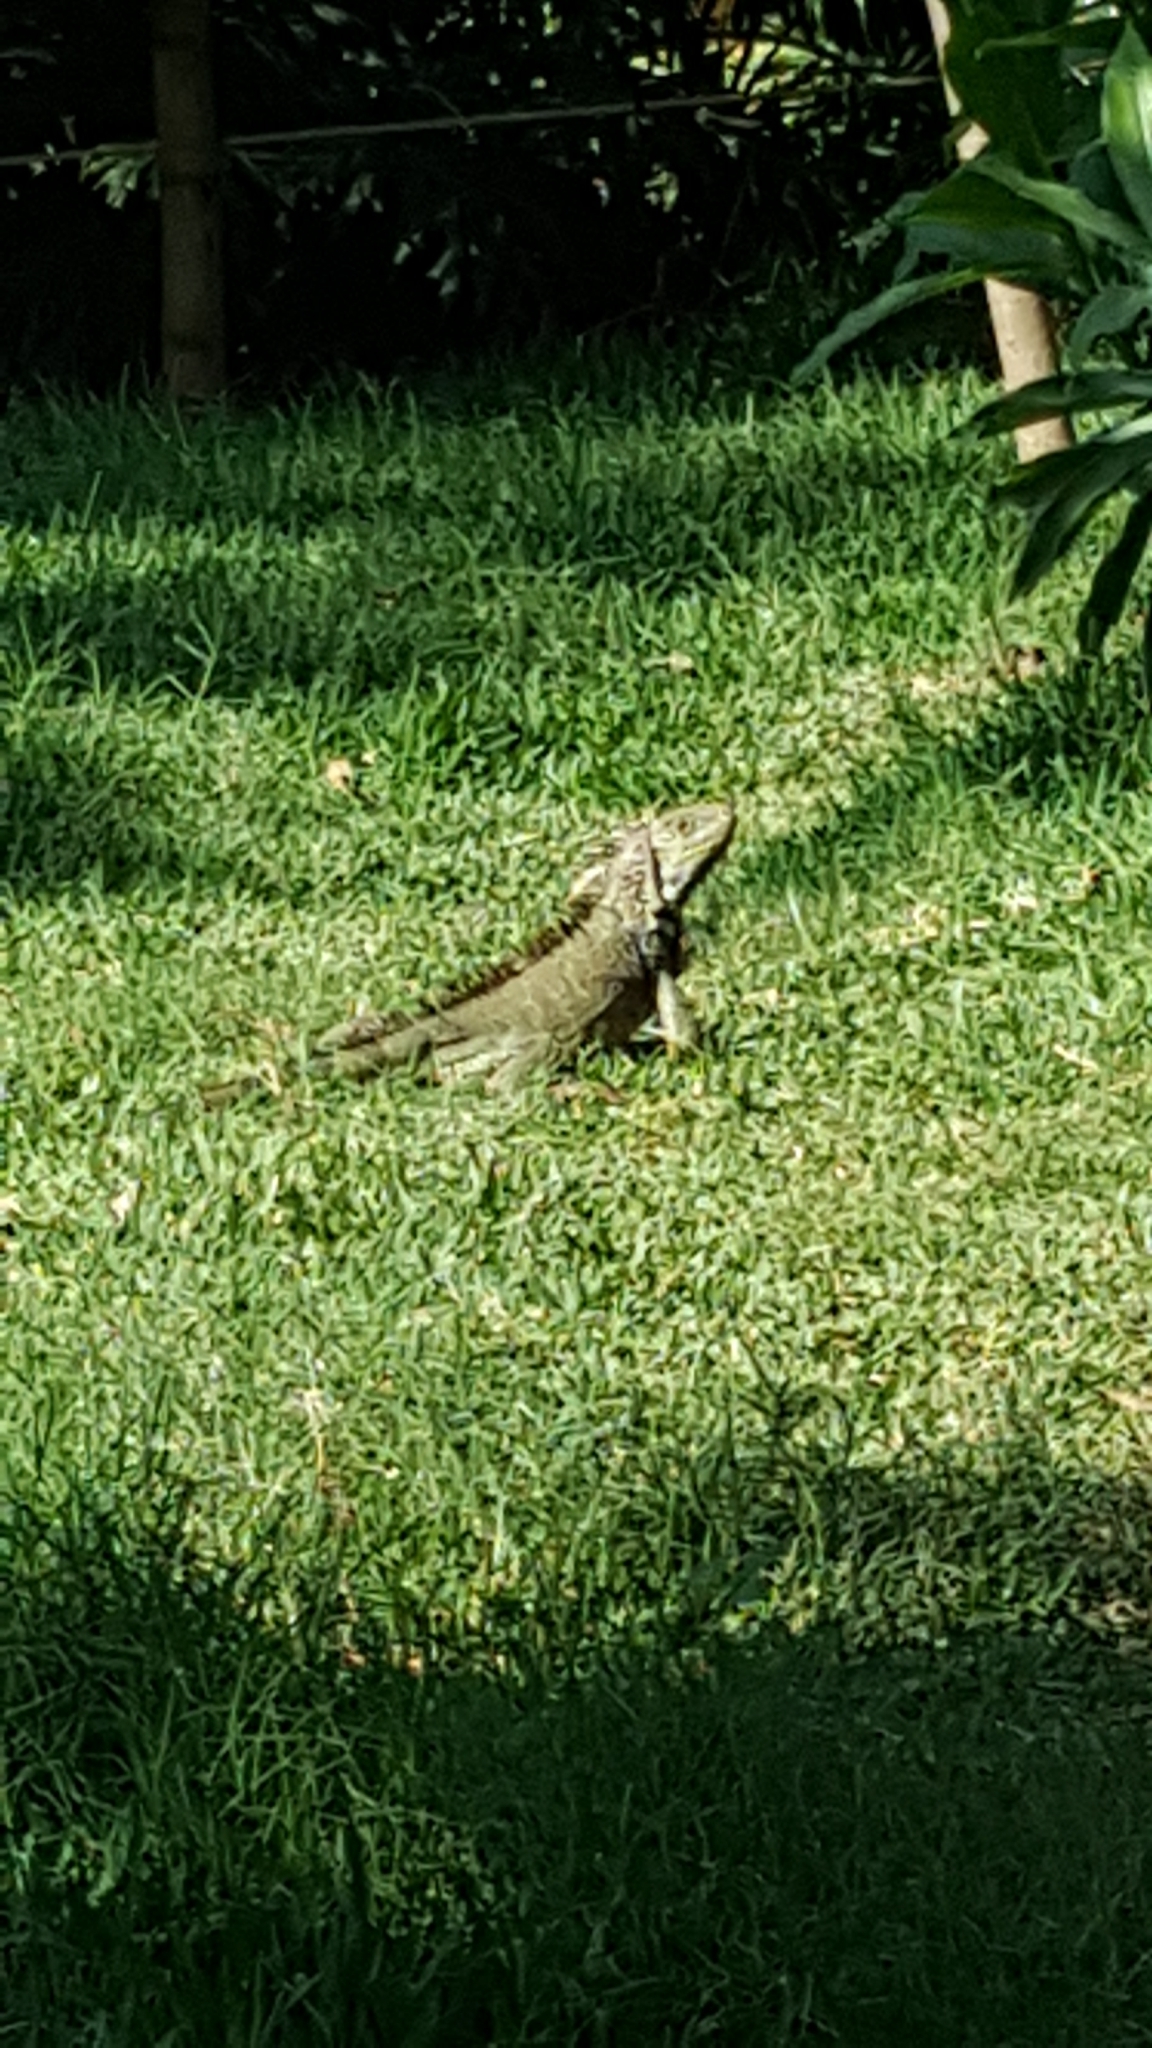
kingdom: Animalia
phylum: Chordata
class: Squamata
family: Iguanidae
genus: Iguana
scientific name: Iguana iguana
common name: Green iguana
